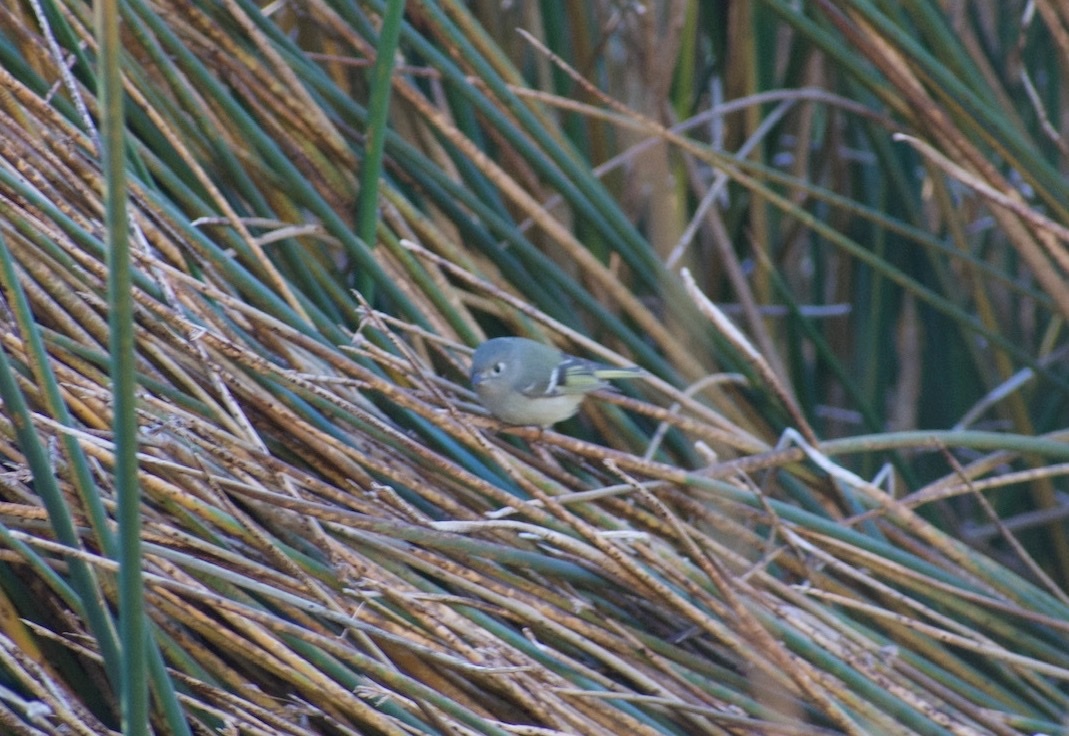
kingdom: Animalia
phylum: Chordata
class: Aves
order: Passeriformes
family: Regulidae
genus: Regulus
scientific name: Regulus calendula
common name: Ruby-crowned kinglet
